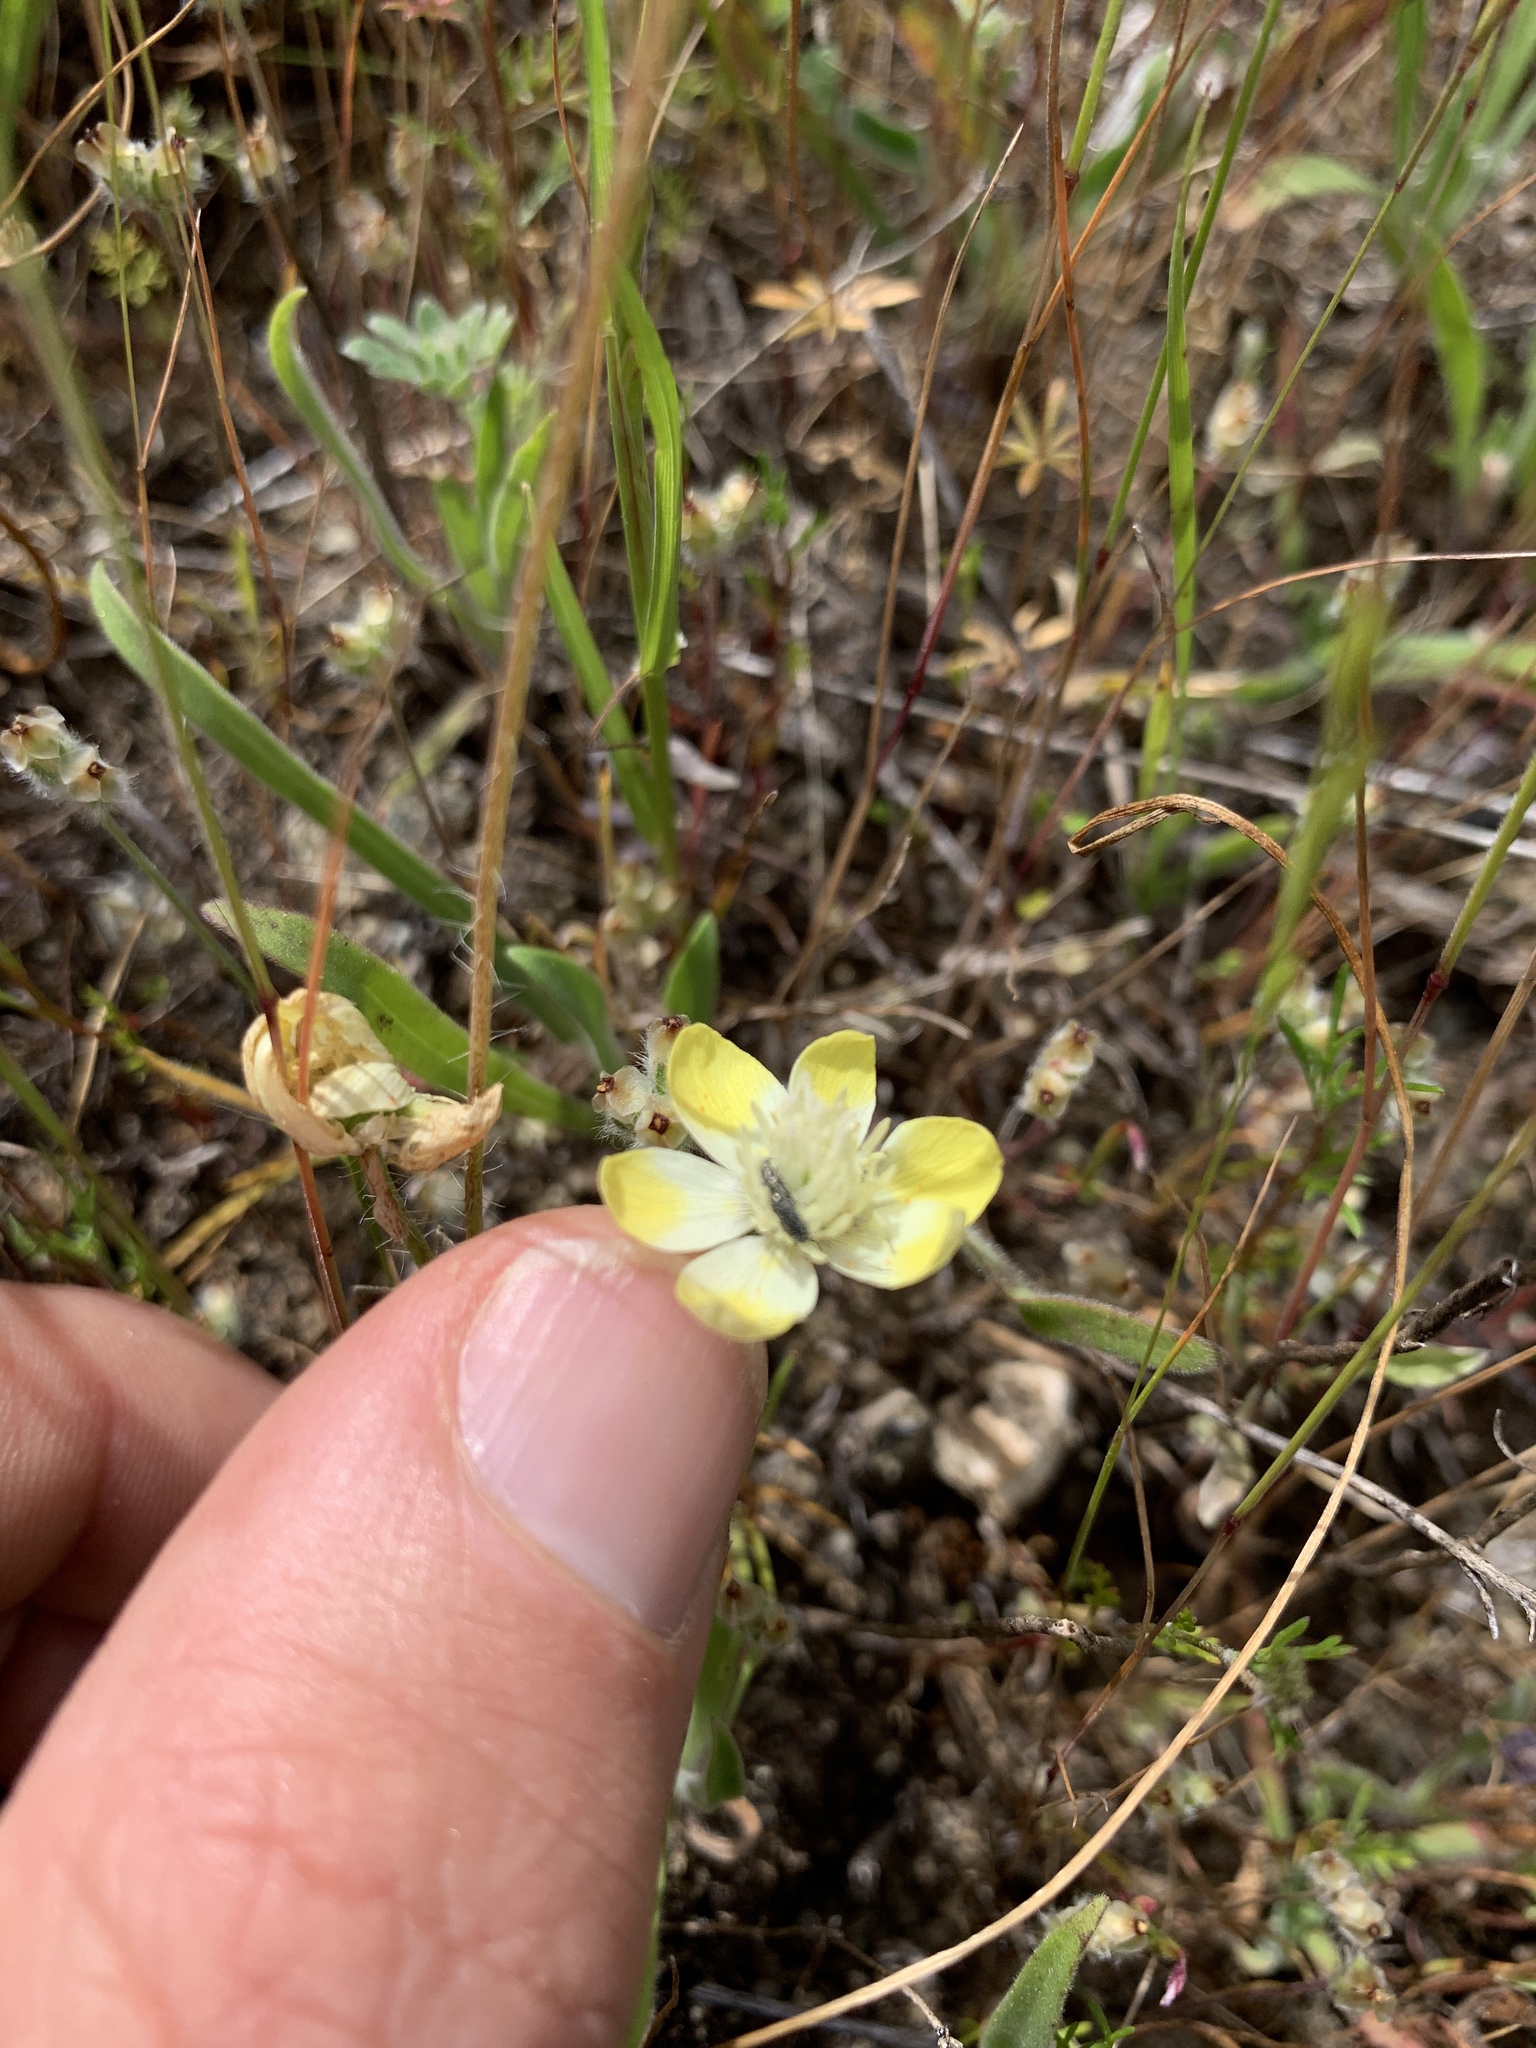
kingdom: Plantae
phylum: Tracheophyta
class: Magnoliopsida
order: Ranunculales
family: Papaveraceae
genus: Platystemon
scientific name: Platystemon californicus
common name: Cream-cups
